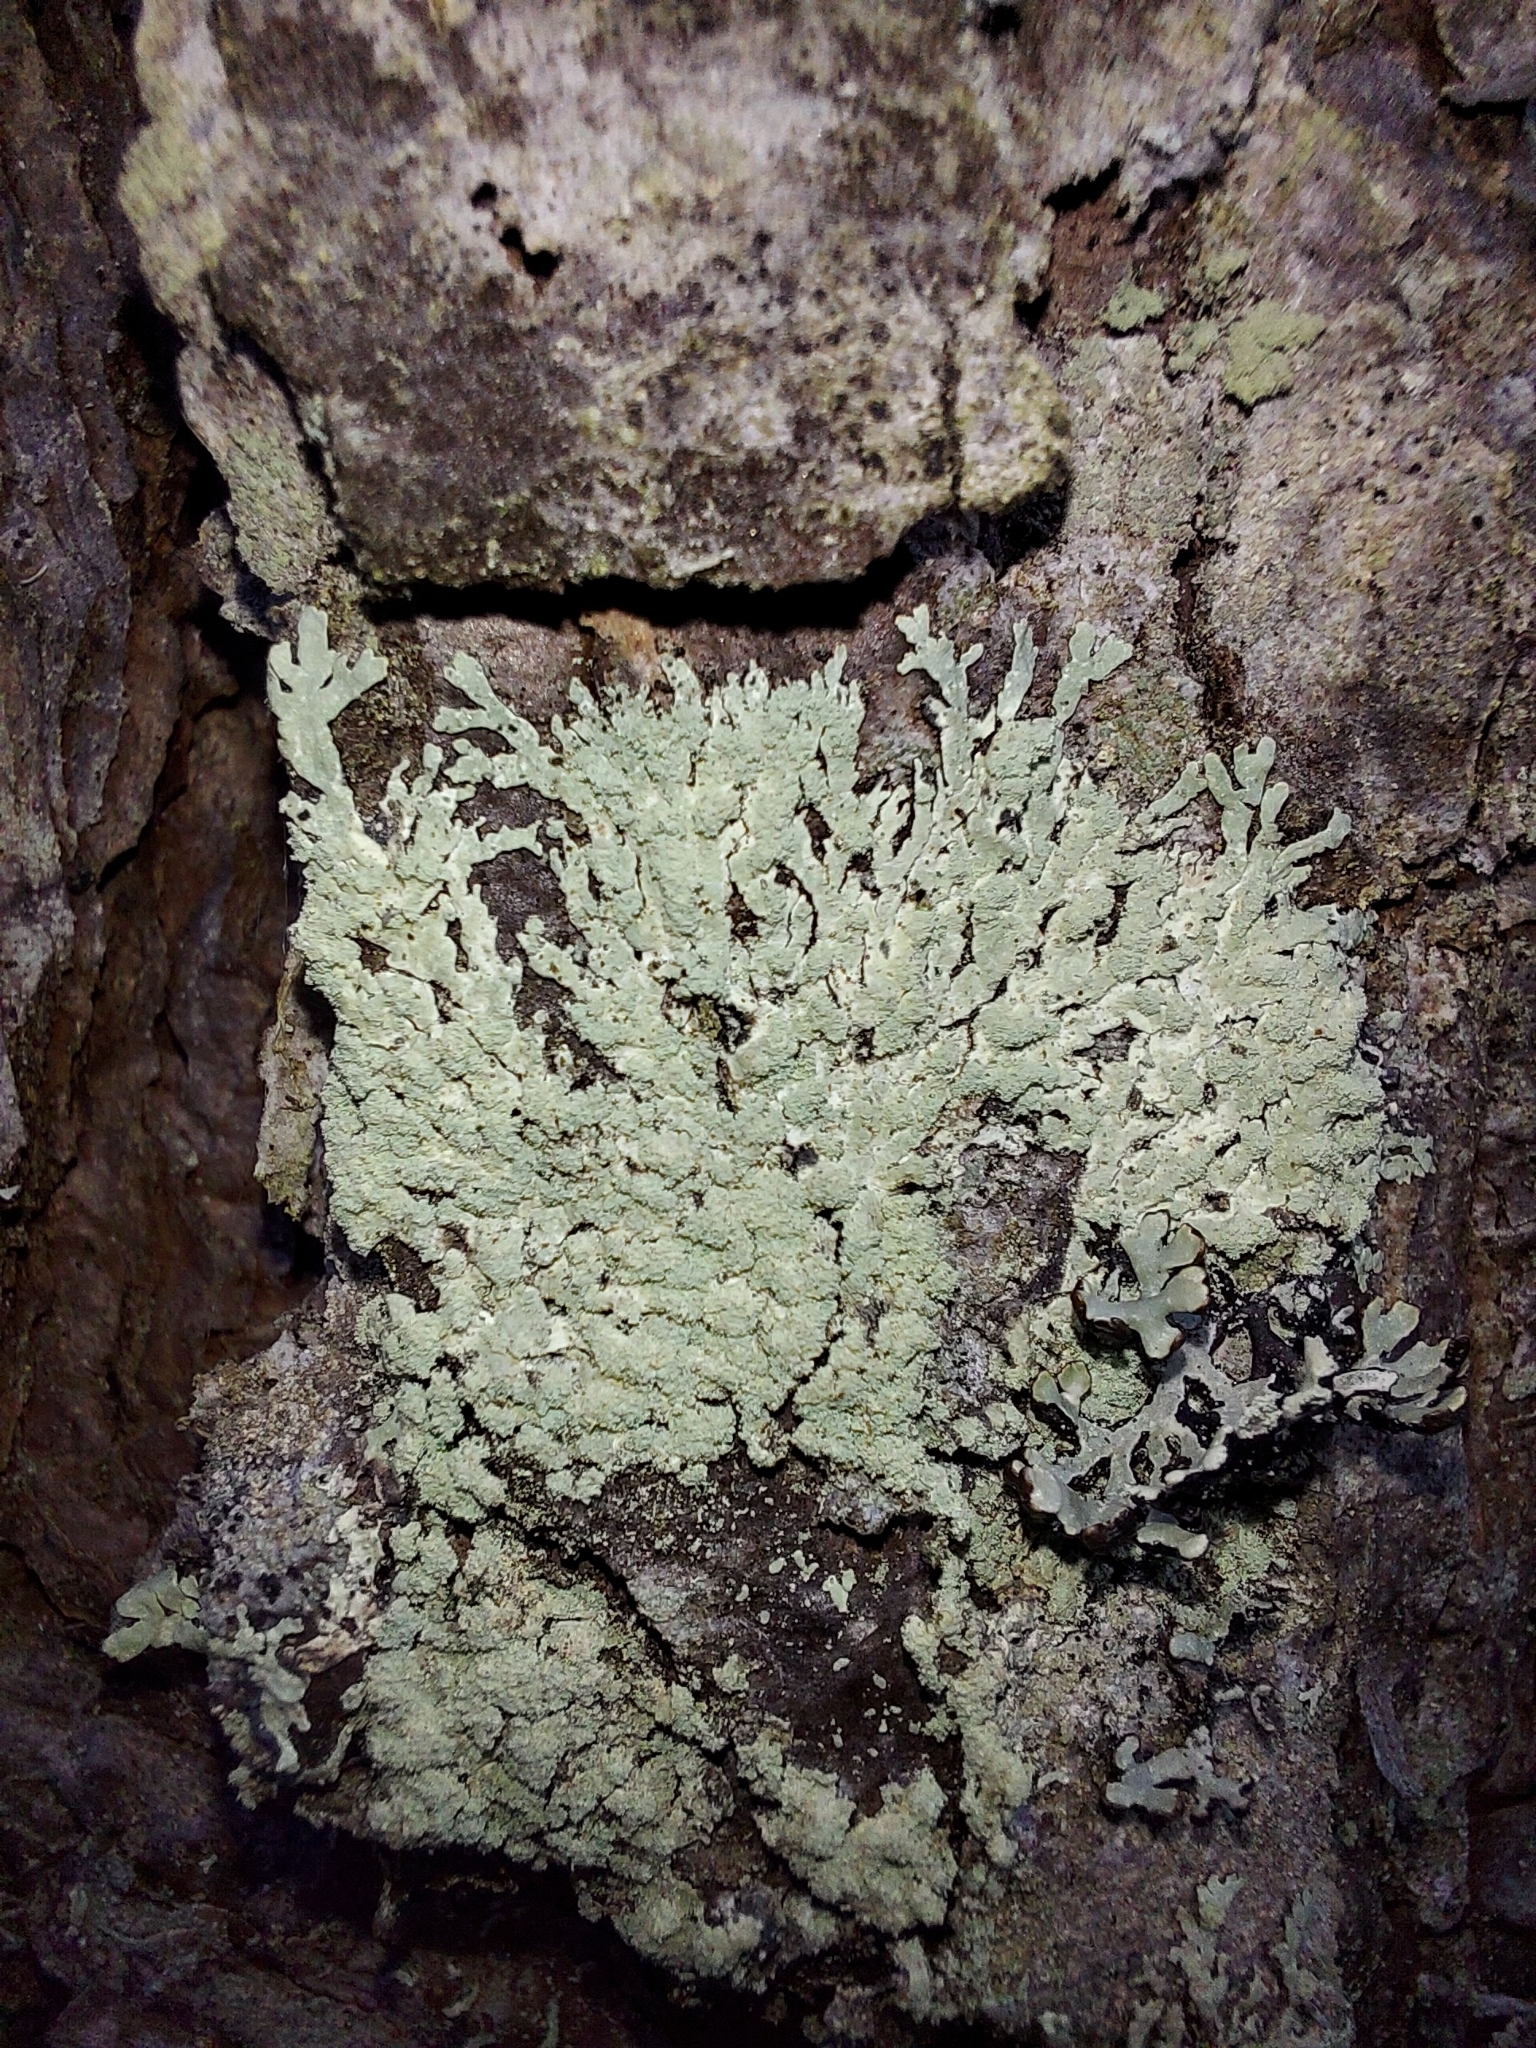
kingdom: Fungi
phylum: Ascomycota
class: Lecanoromycetes
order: Lecanorales
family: Parmeliaceae
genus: Parmeliopsis
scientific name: Parmeliopsis ambigua
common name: Green starburst lichen
